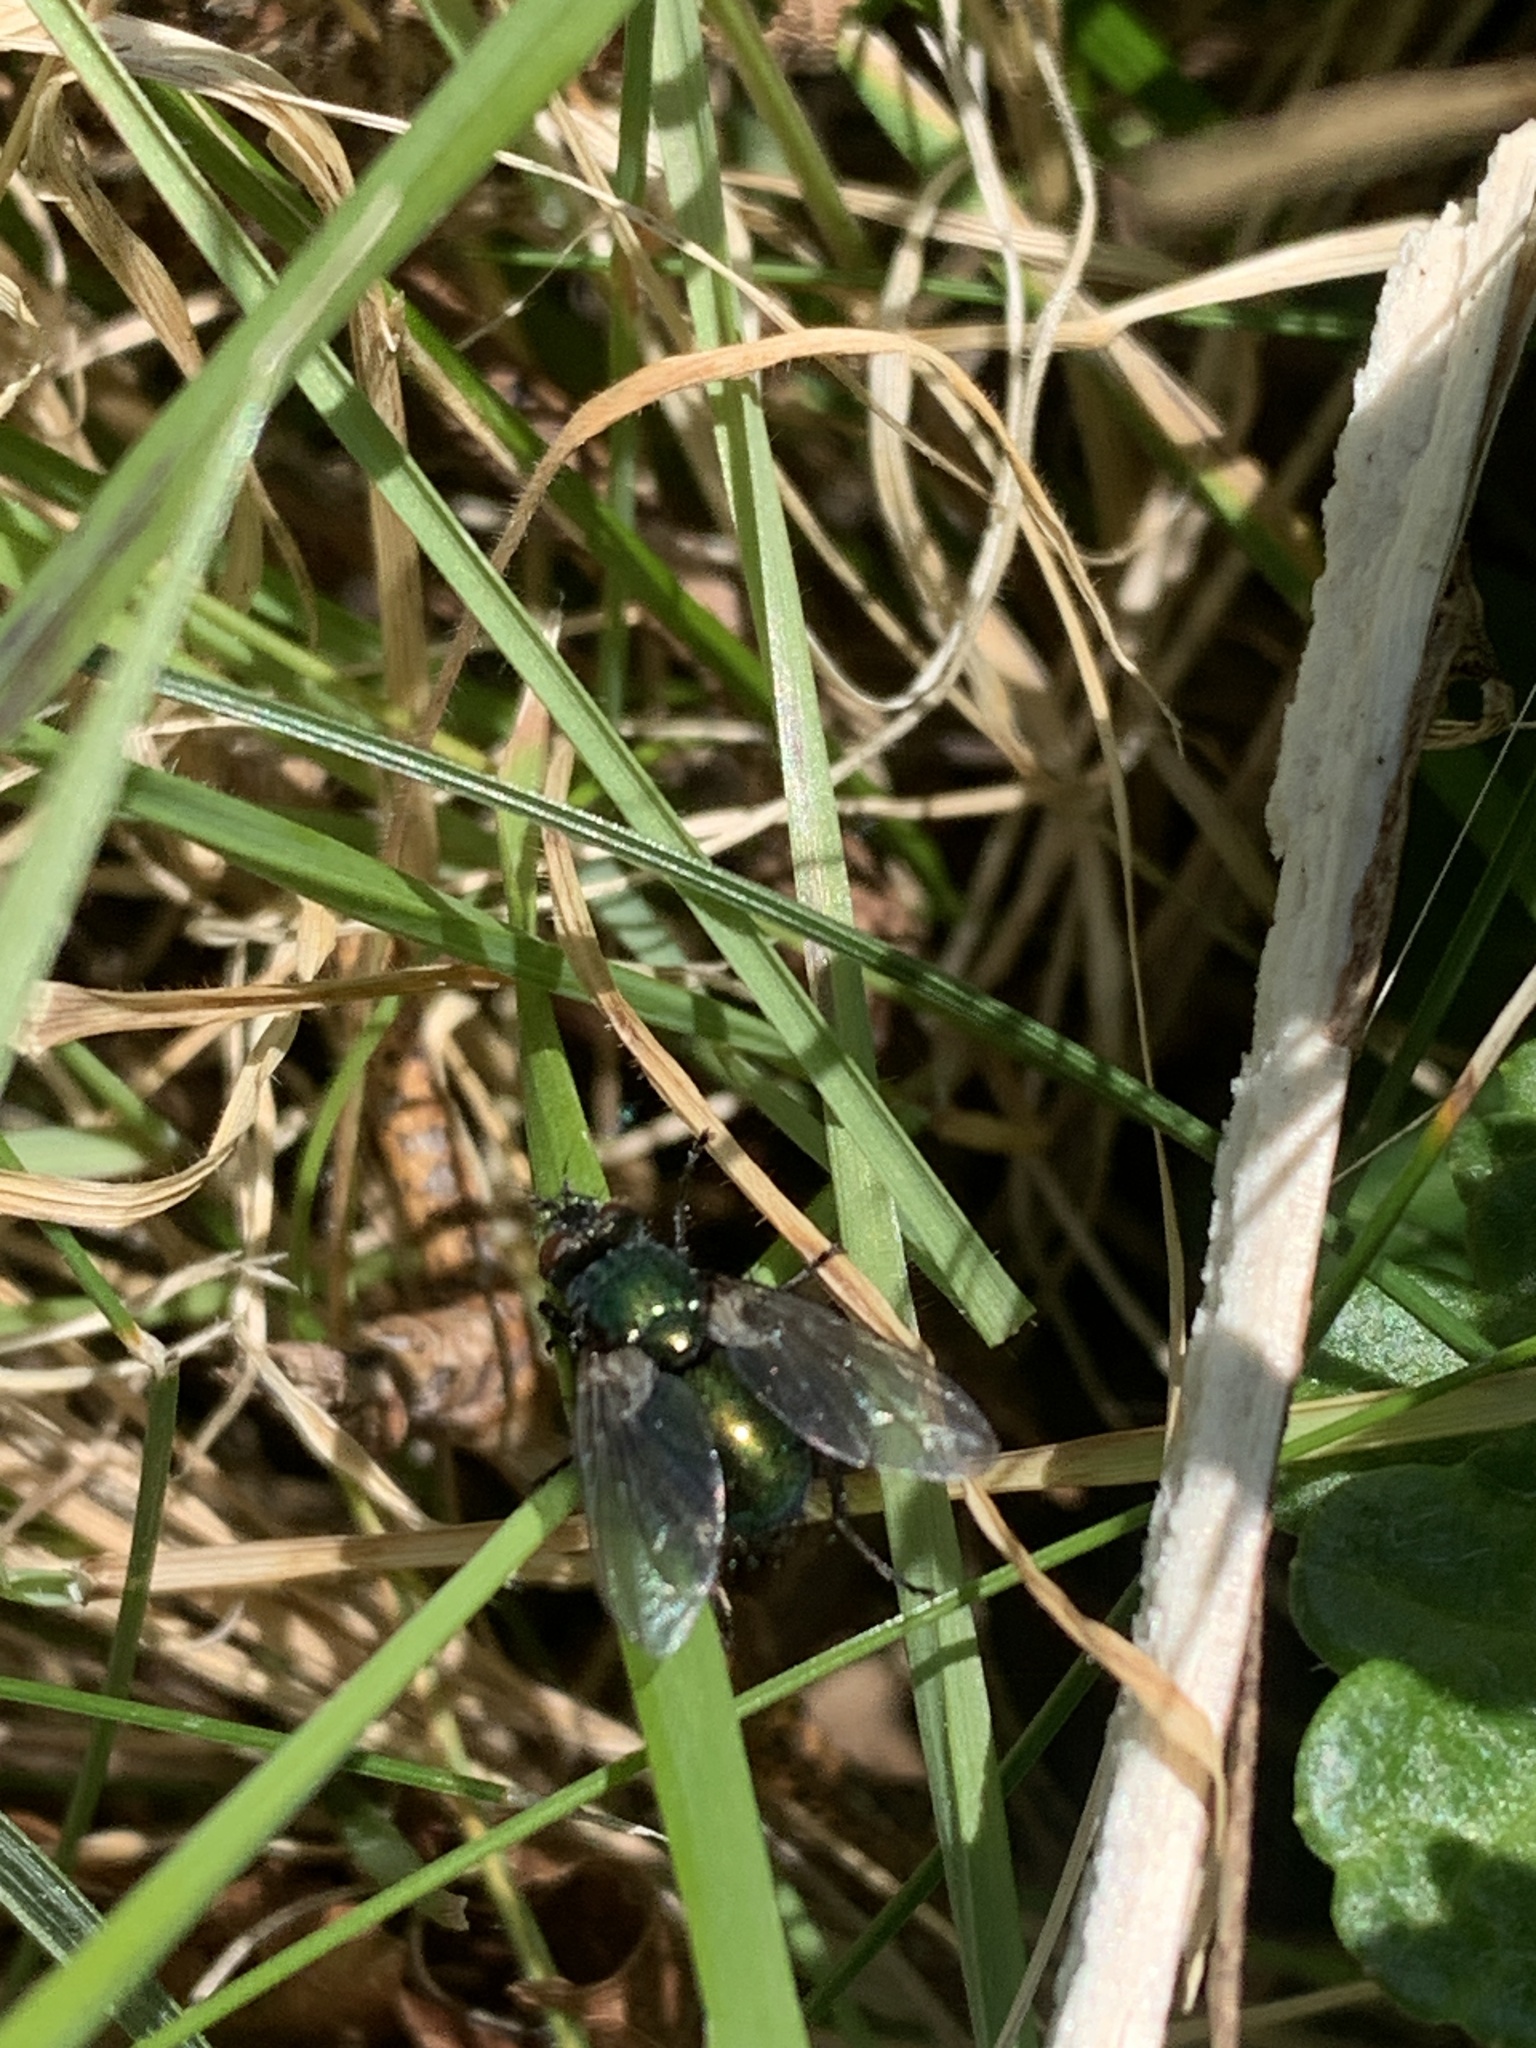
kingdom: Animalia
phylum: Arthropoda
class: Insecta
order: Diptera
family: Tachinidae
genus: Gymnocheta
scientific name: Gymnocheta viridis
